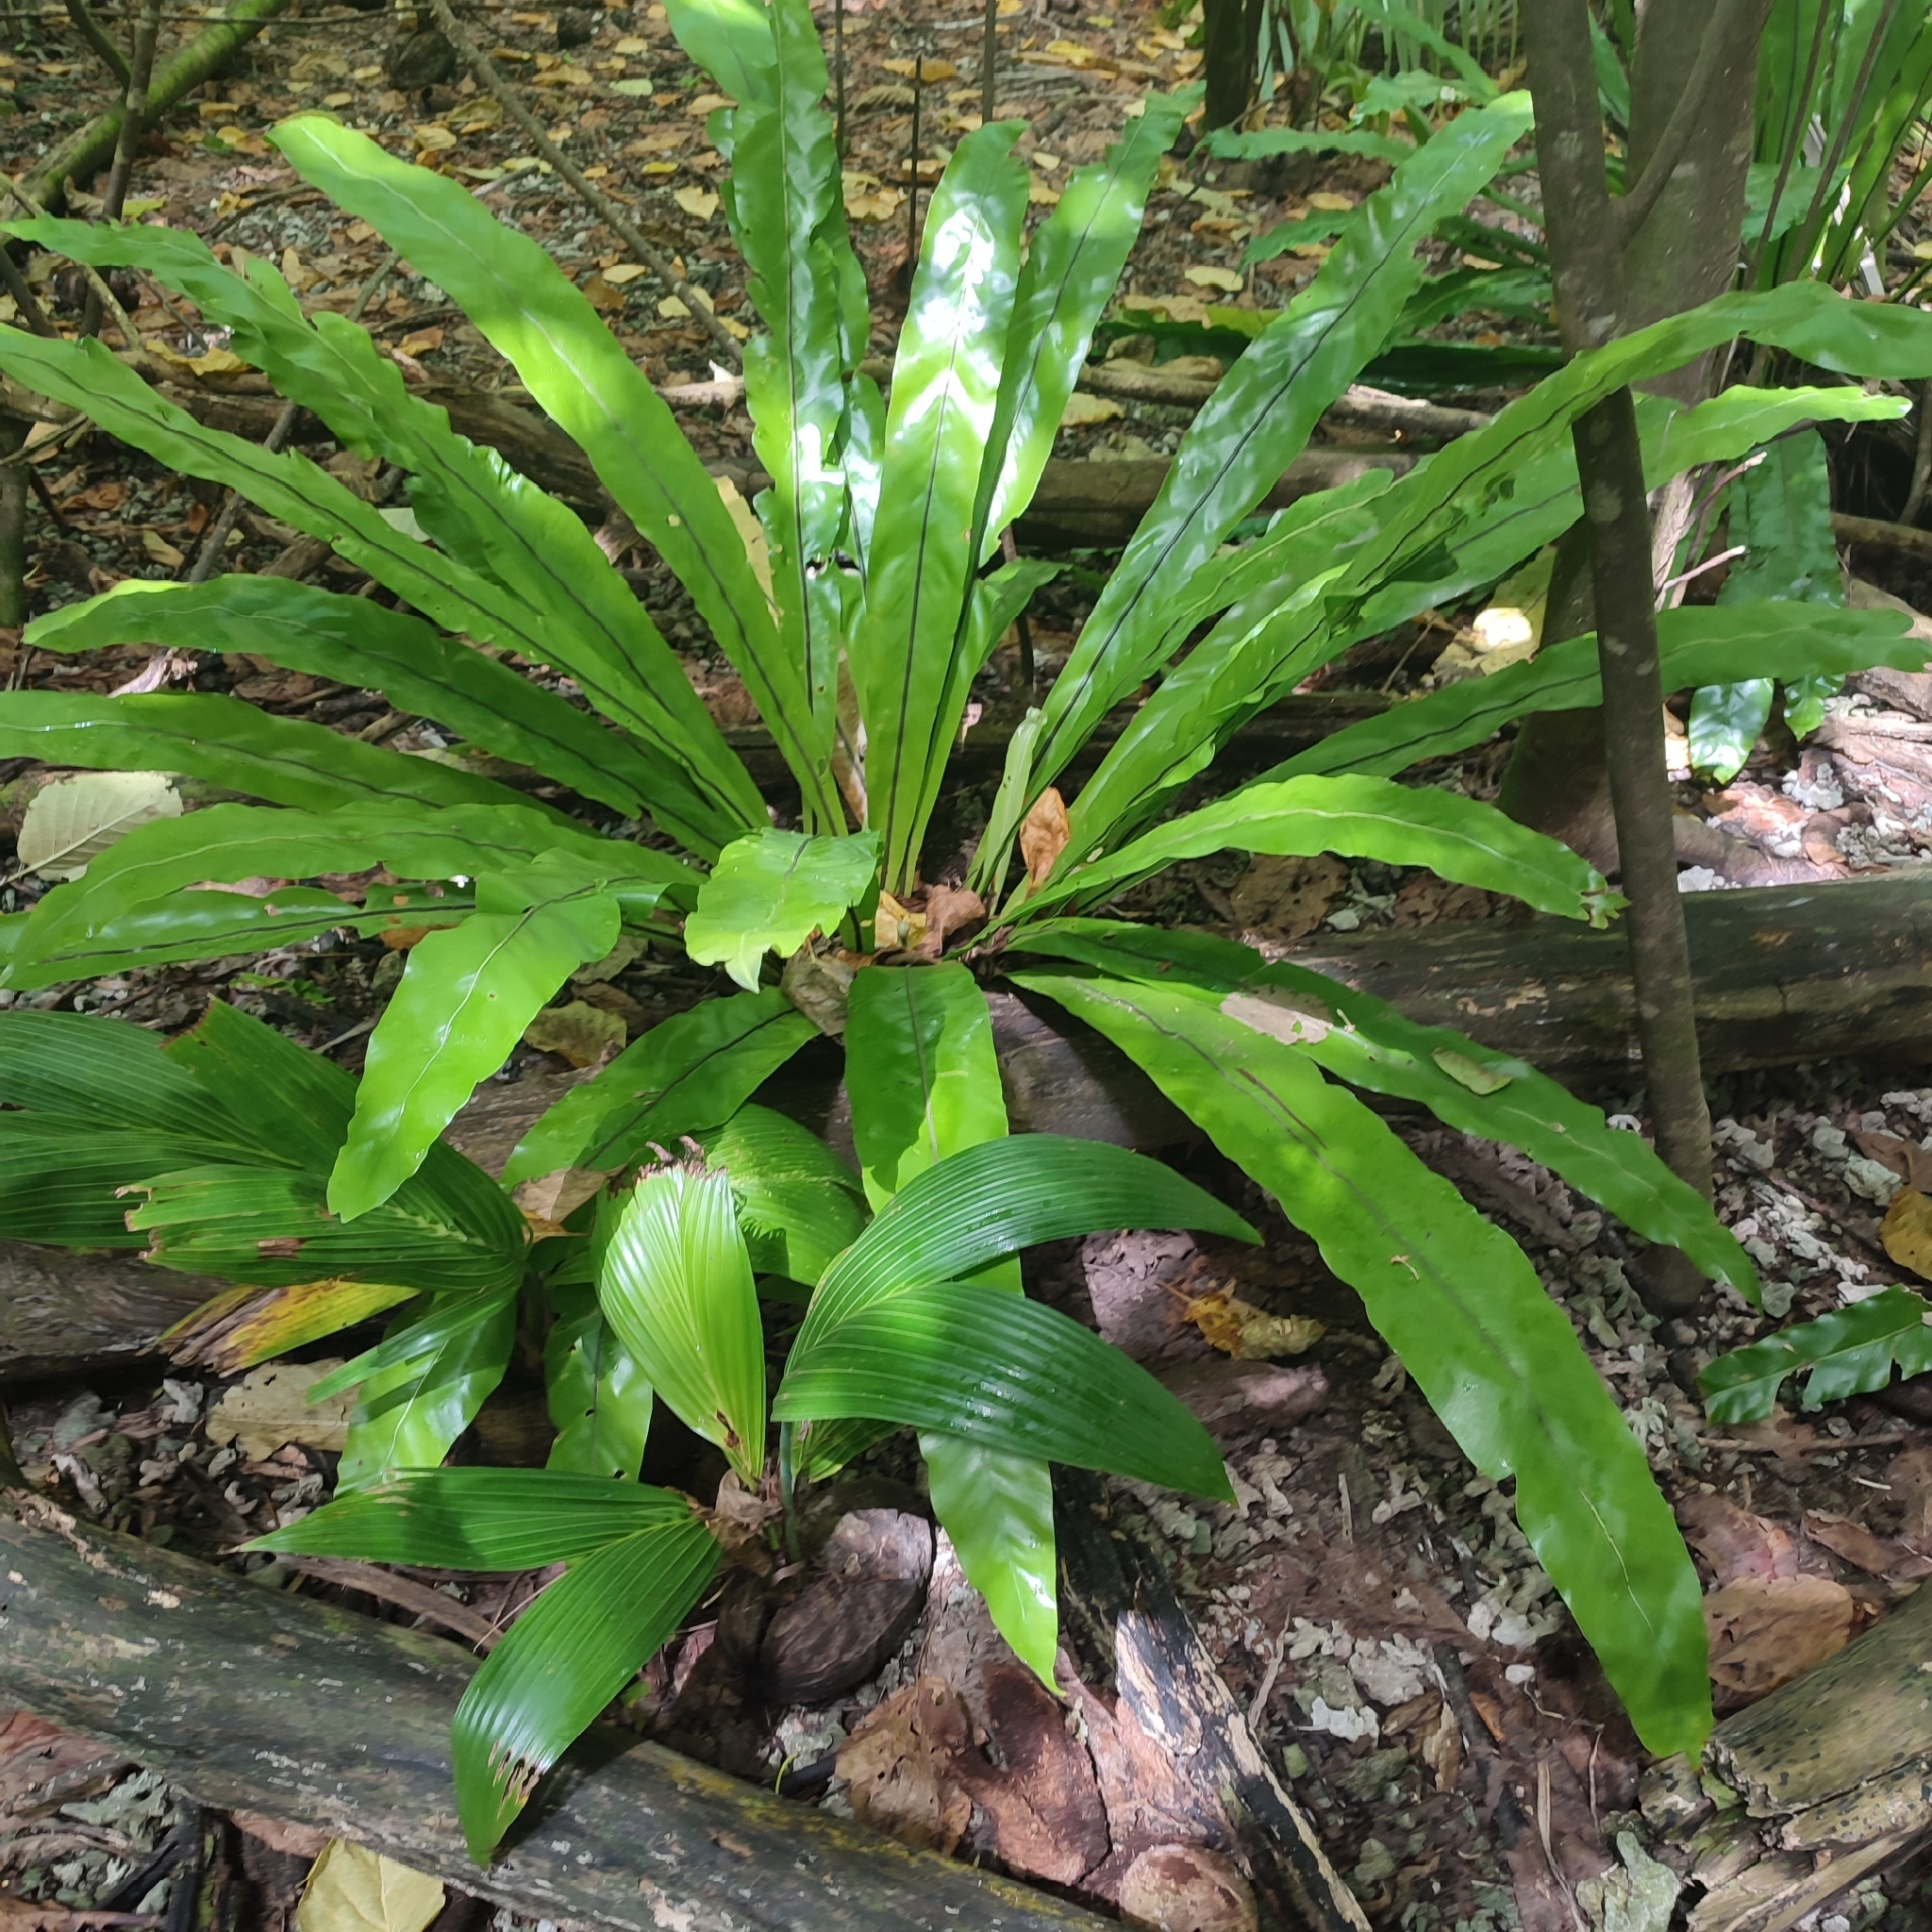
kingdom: Plantae
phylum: Tracheophyta
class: Polypodiopsida
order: Polypodiales
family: Aspleniaceae
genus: Asplenium
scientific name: Asplenium nidus
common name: Bird's-nest fern
